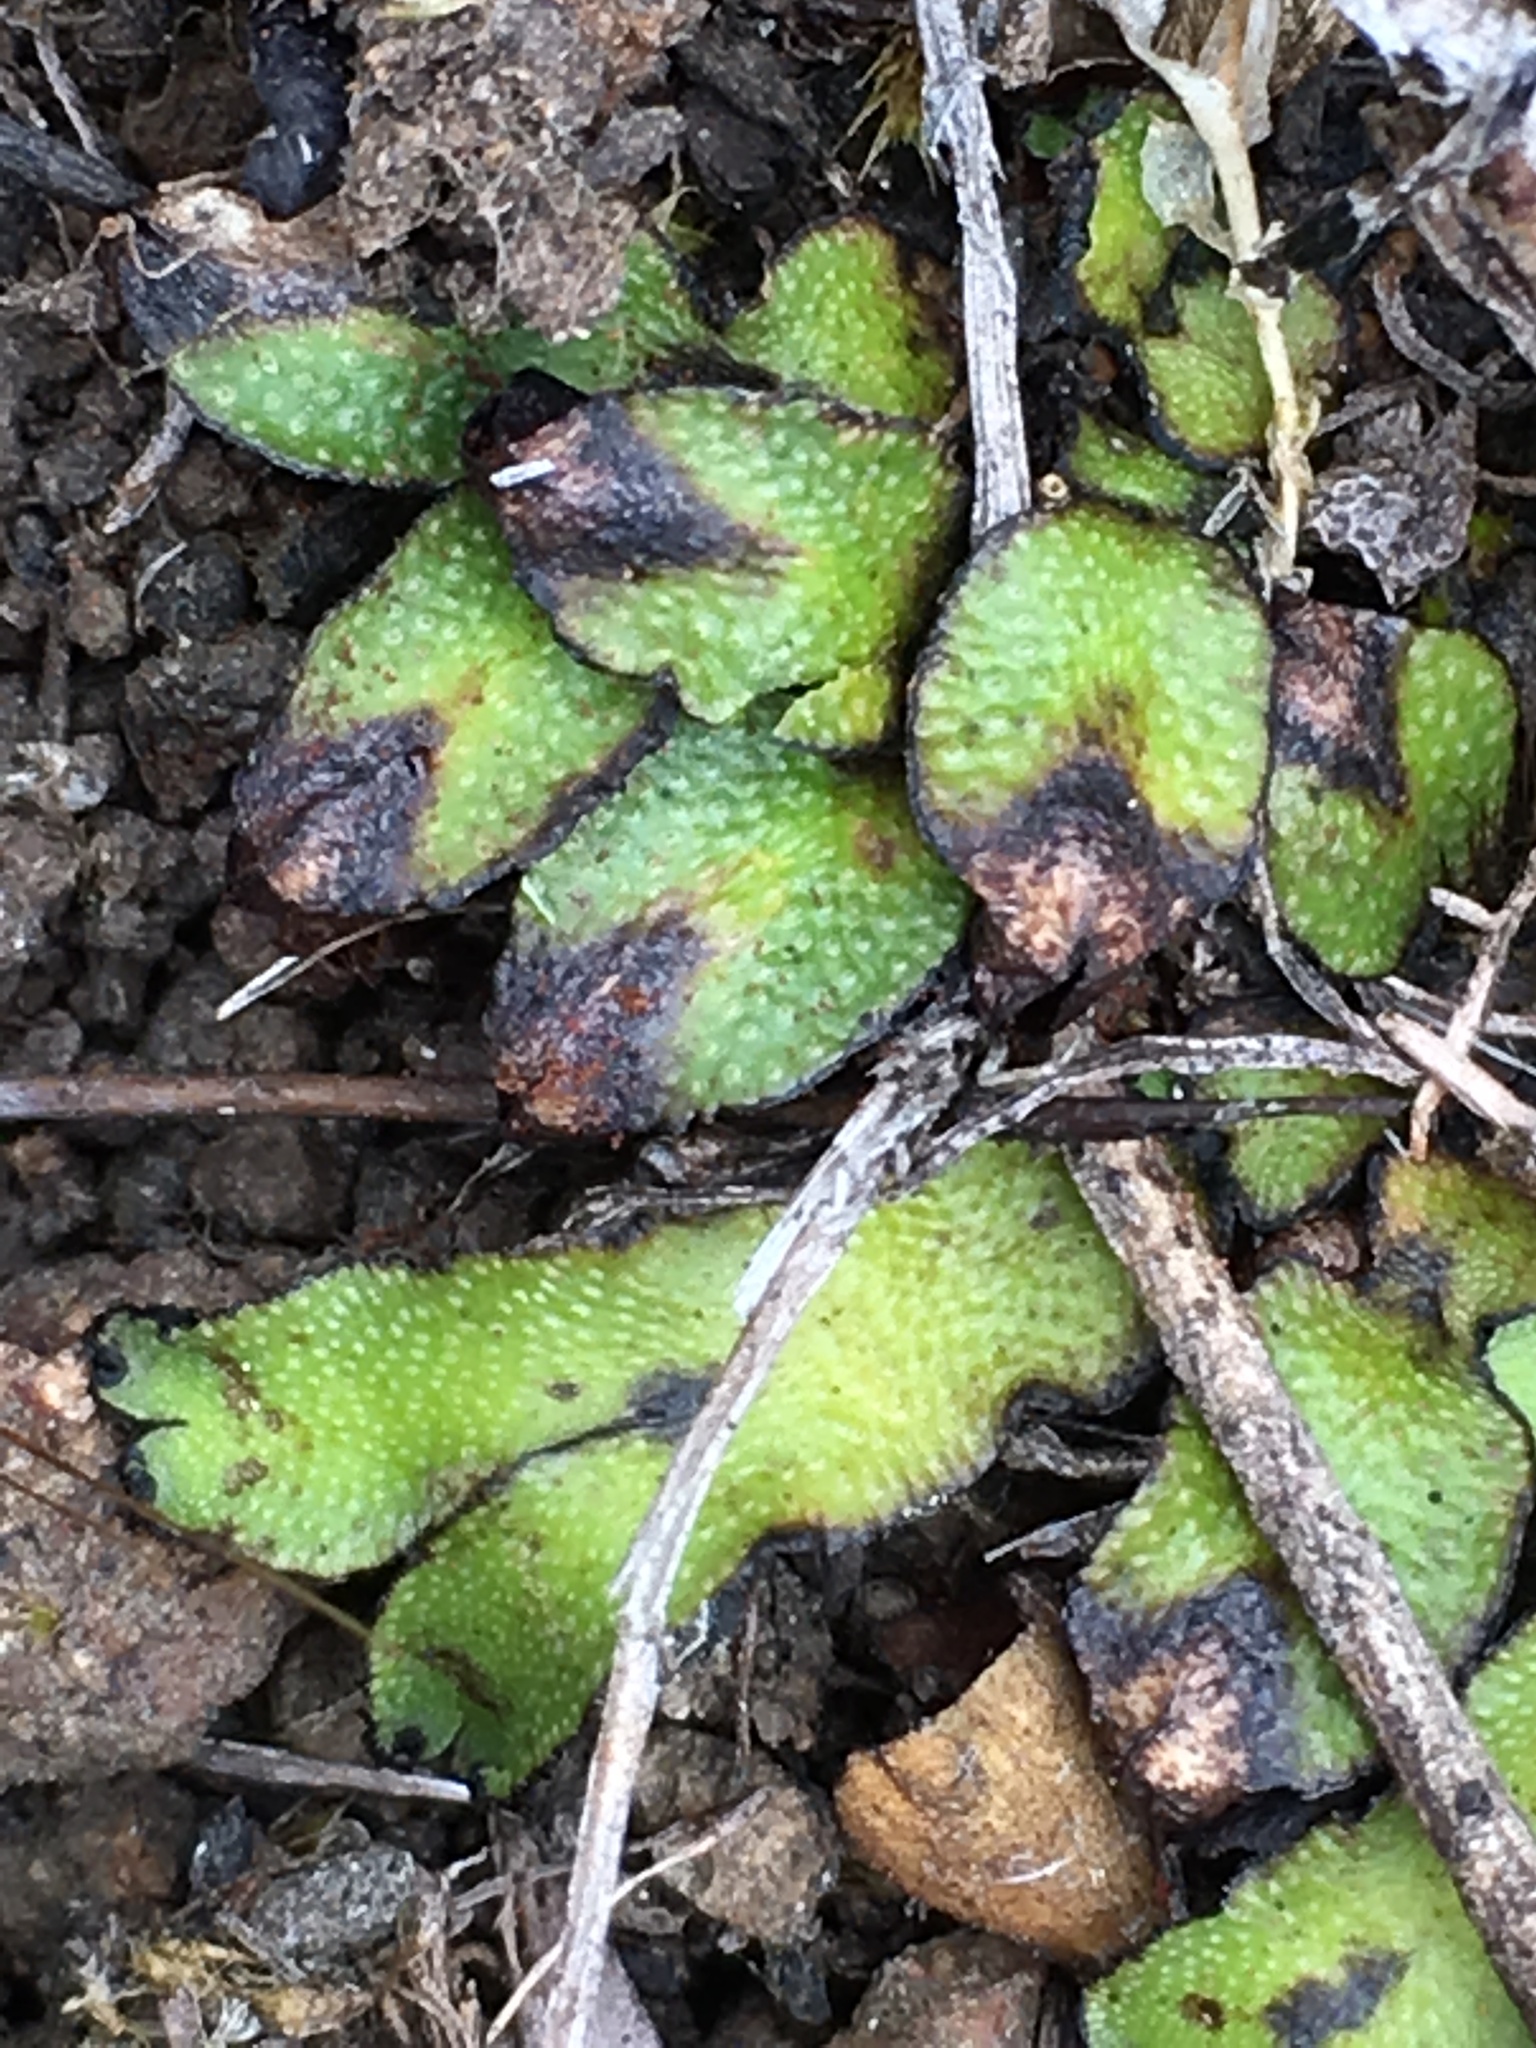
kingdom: Plantae
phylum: Marchantiophyta
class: Marchantiopsida
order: Marchantiales
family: Targioniaceae
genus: Targionia
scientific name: Targionia hypophylla
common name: Orobus-seed liverwort
